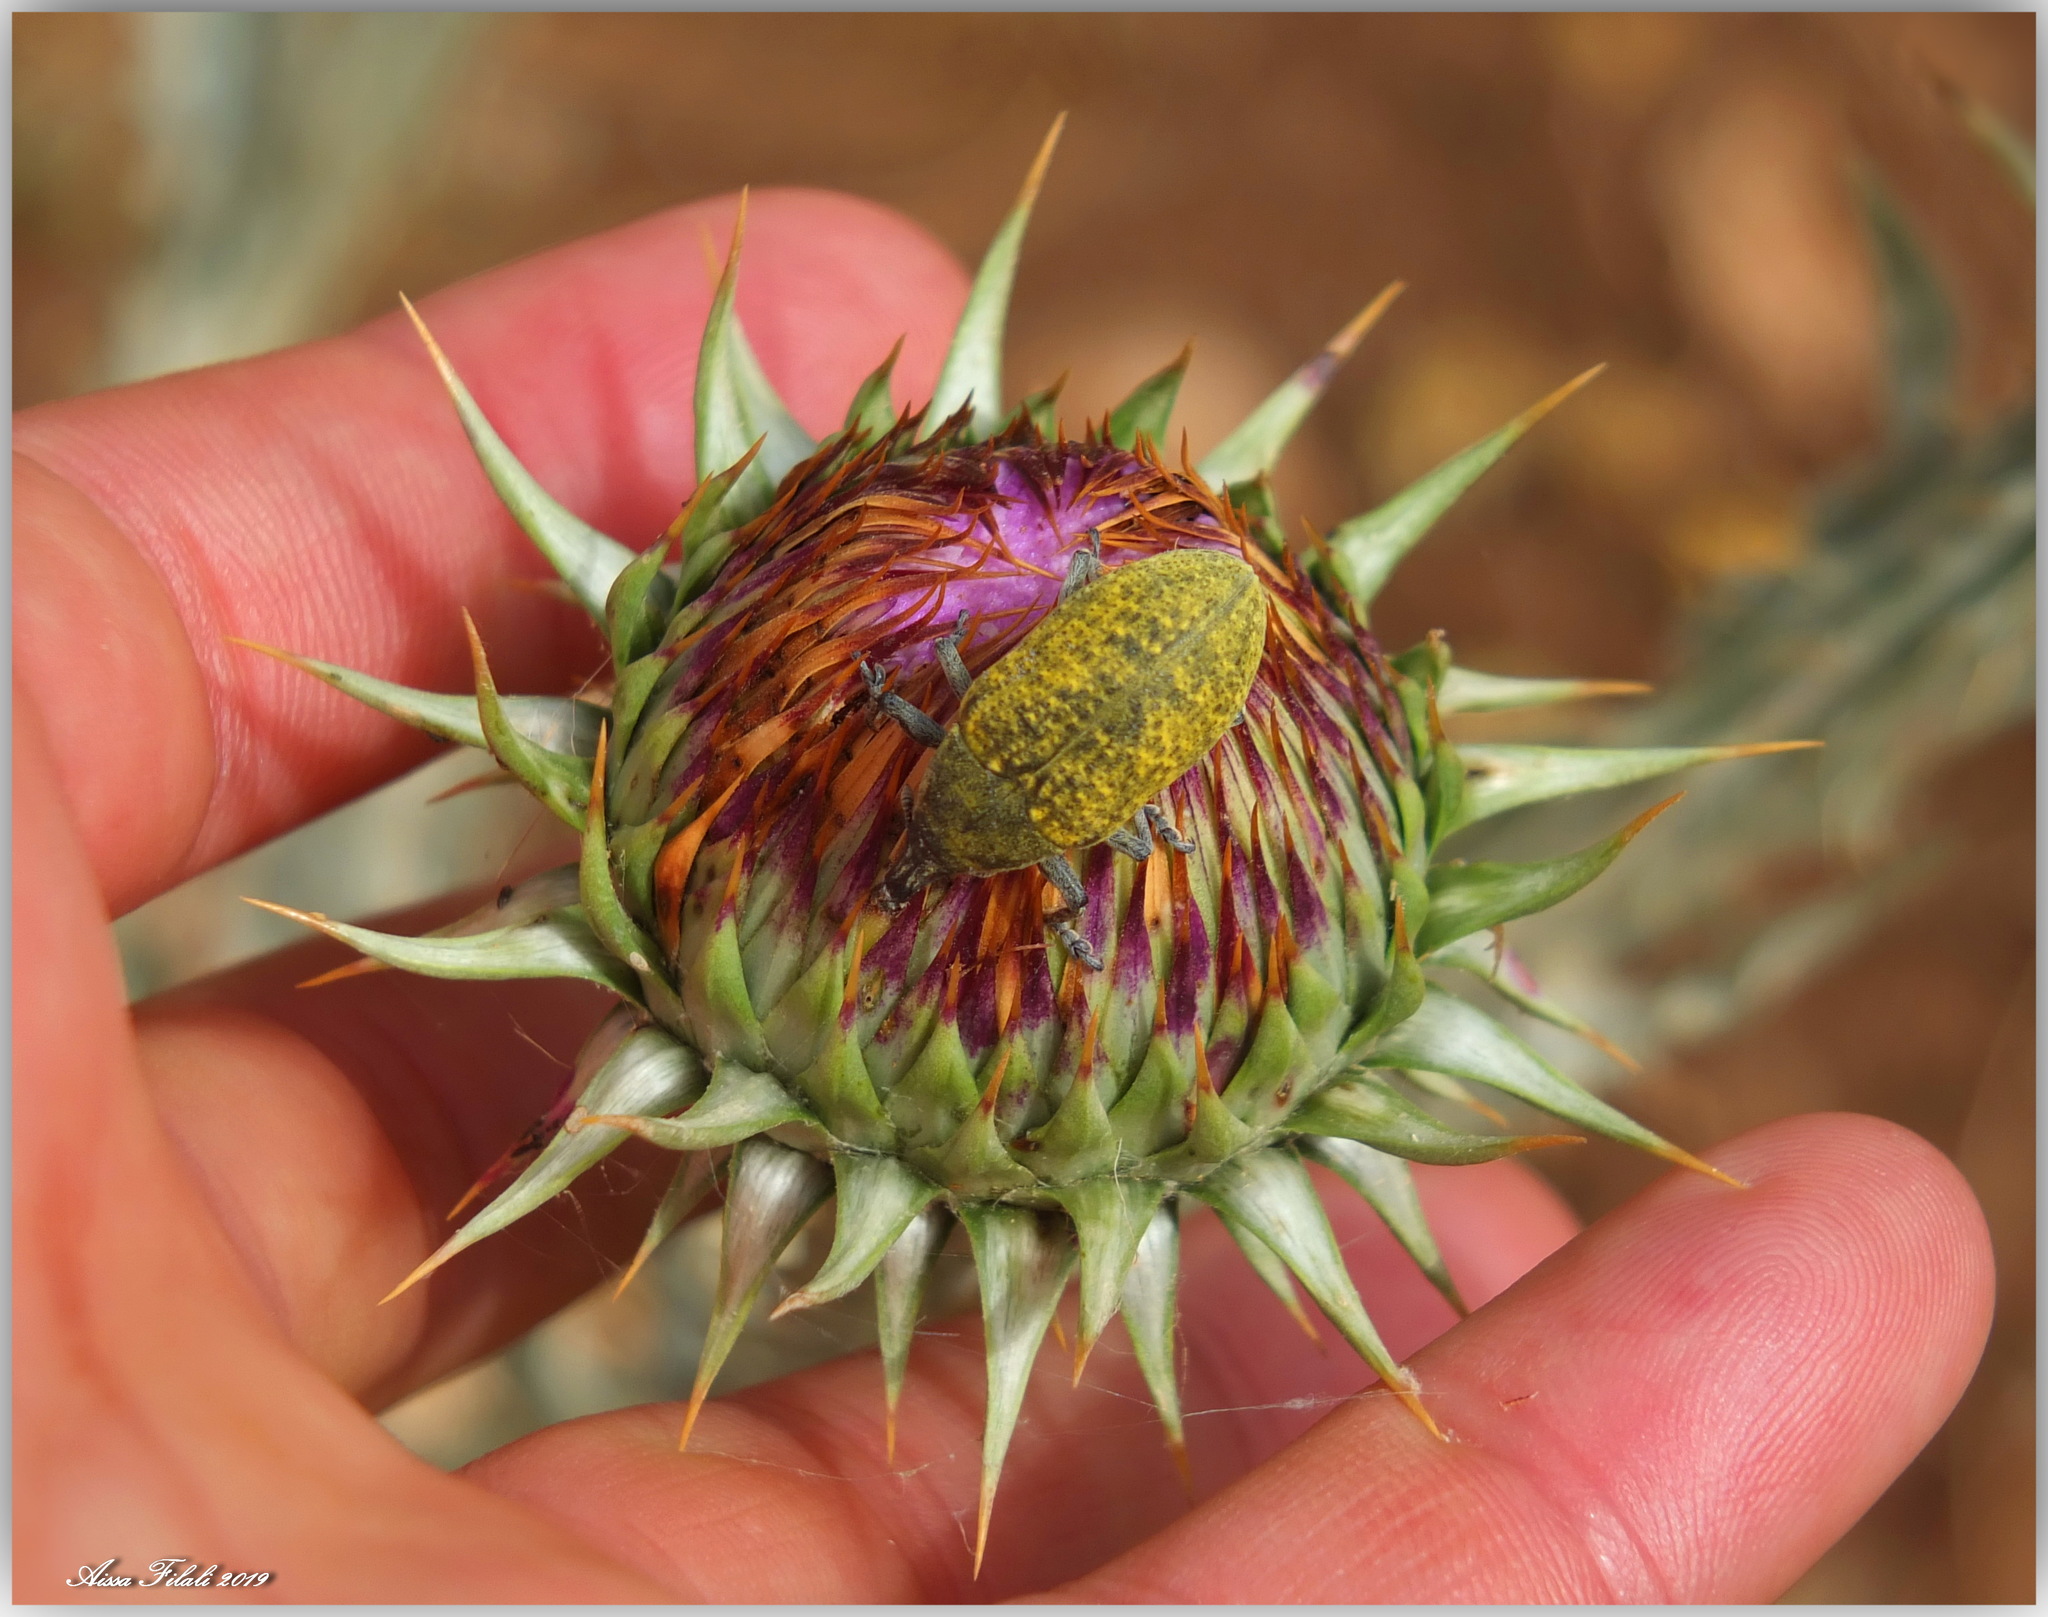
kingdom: Animalia
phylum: Arthropoda
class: Insecta
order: Coleoptera
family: Curculionidae
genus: Larinus
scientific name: Larinus cynarae
